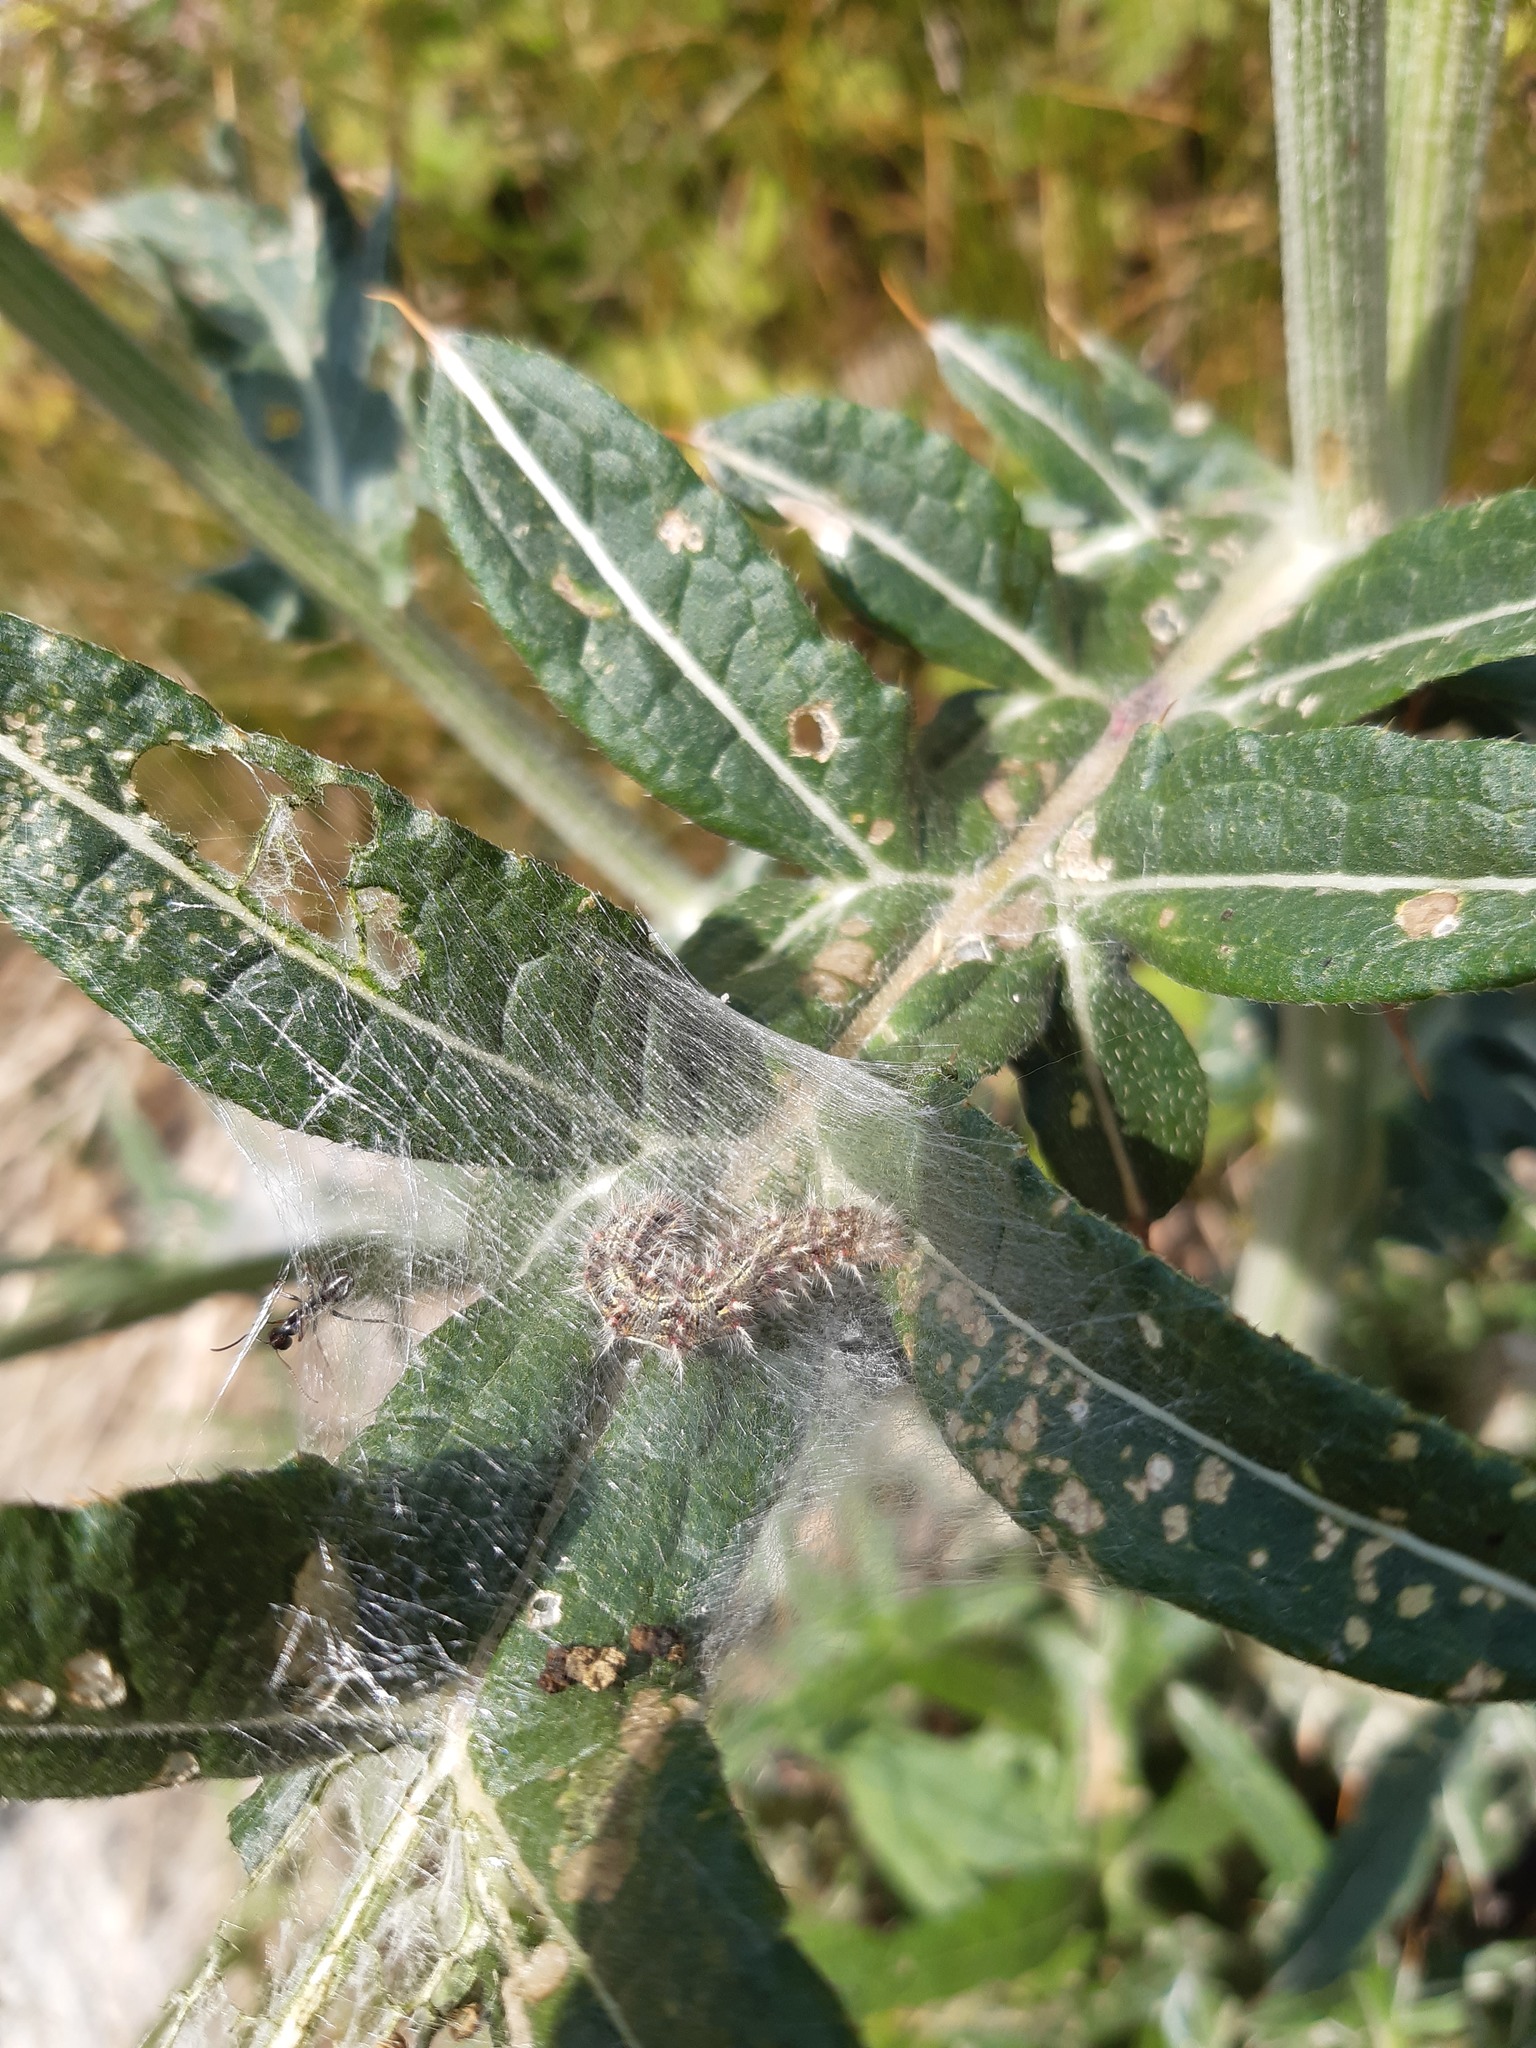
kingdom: Animalia
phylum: Arthropoda
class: Insecta
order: Lepidoptera
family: Nymphalidae
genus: Vanessa
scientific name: Vanessa cardui
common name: Painted lady
